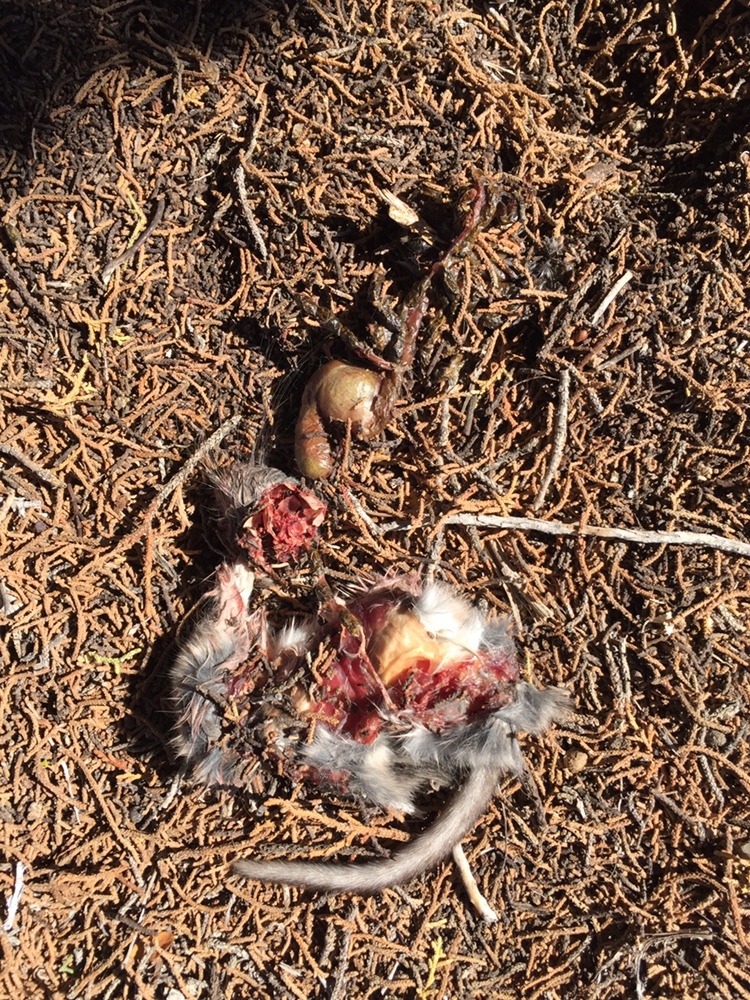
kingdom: Animalia
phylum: Chordata
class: Mammalia
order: Rodentia
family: Cricetidae
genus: Neotoma
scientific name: Neotoma albigula
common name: White-throated woodrat
